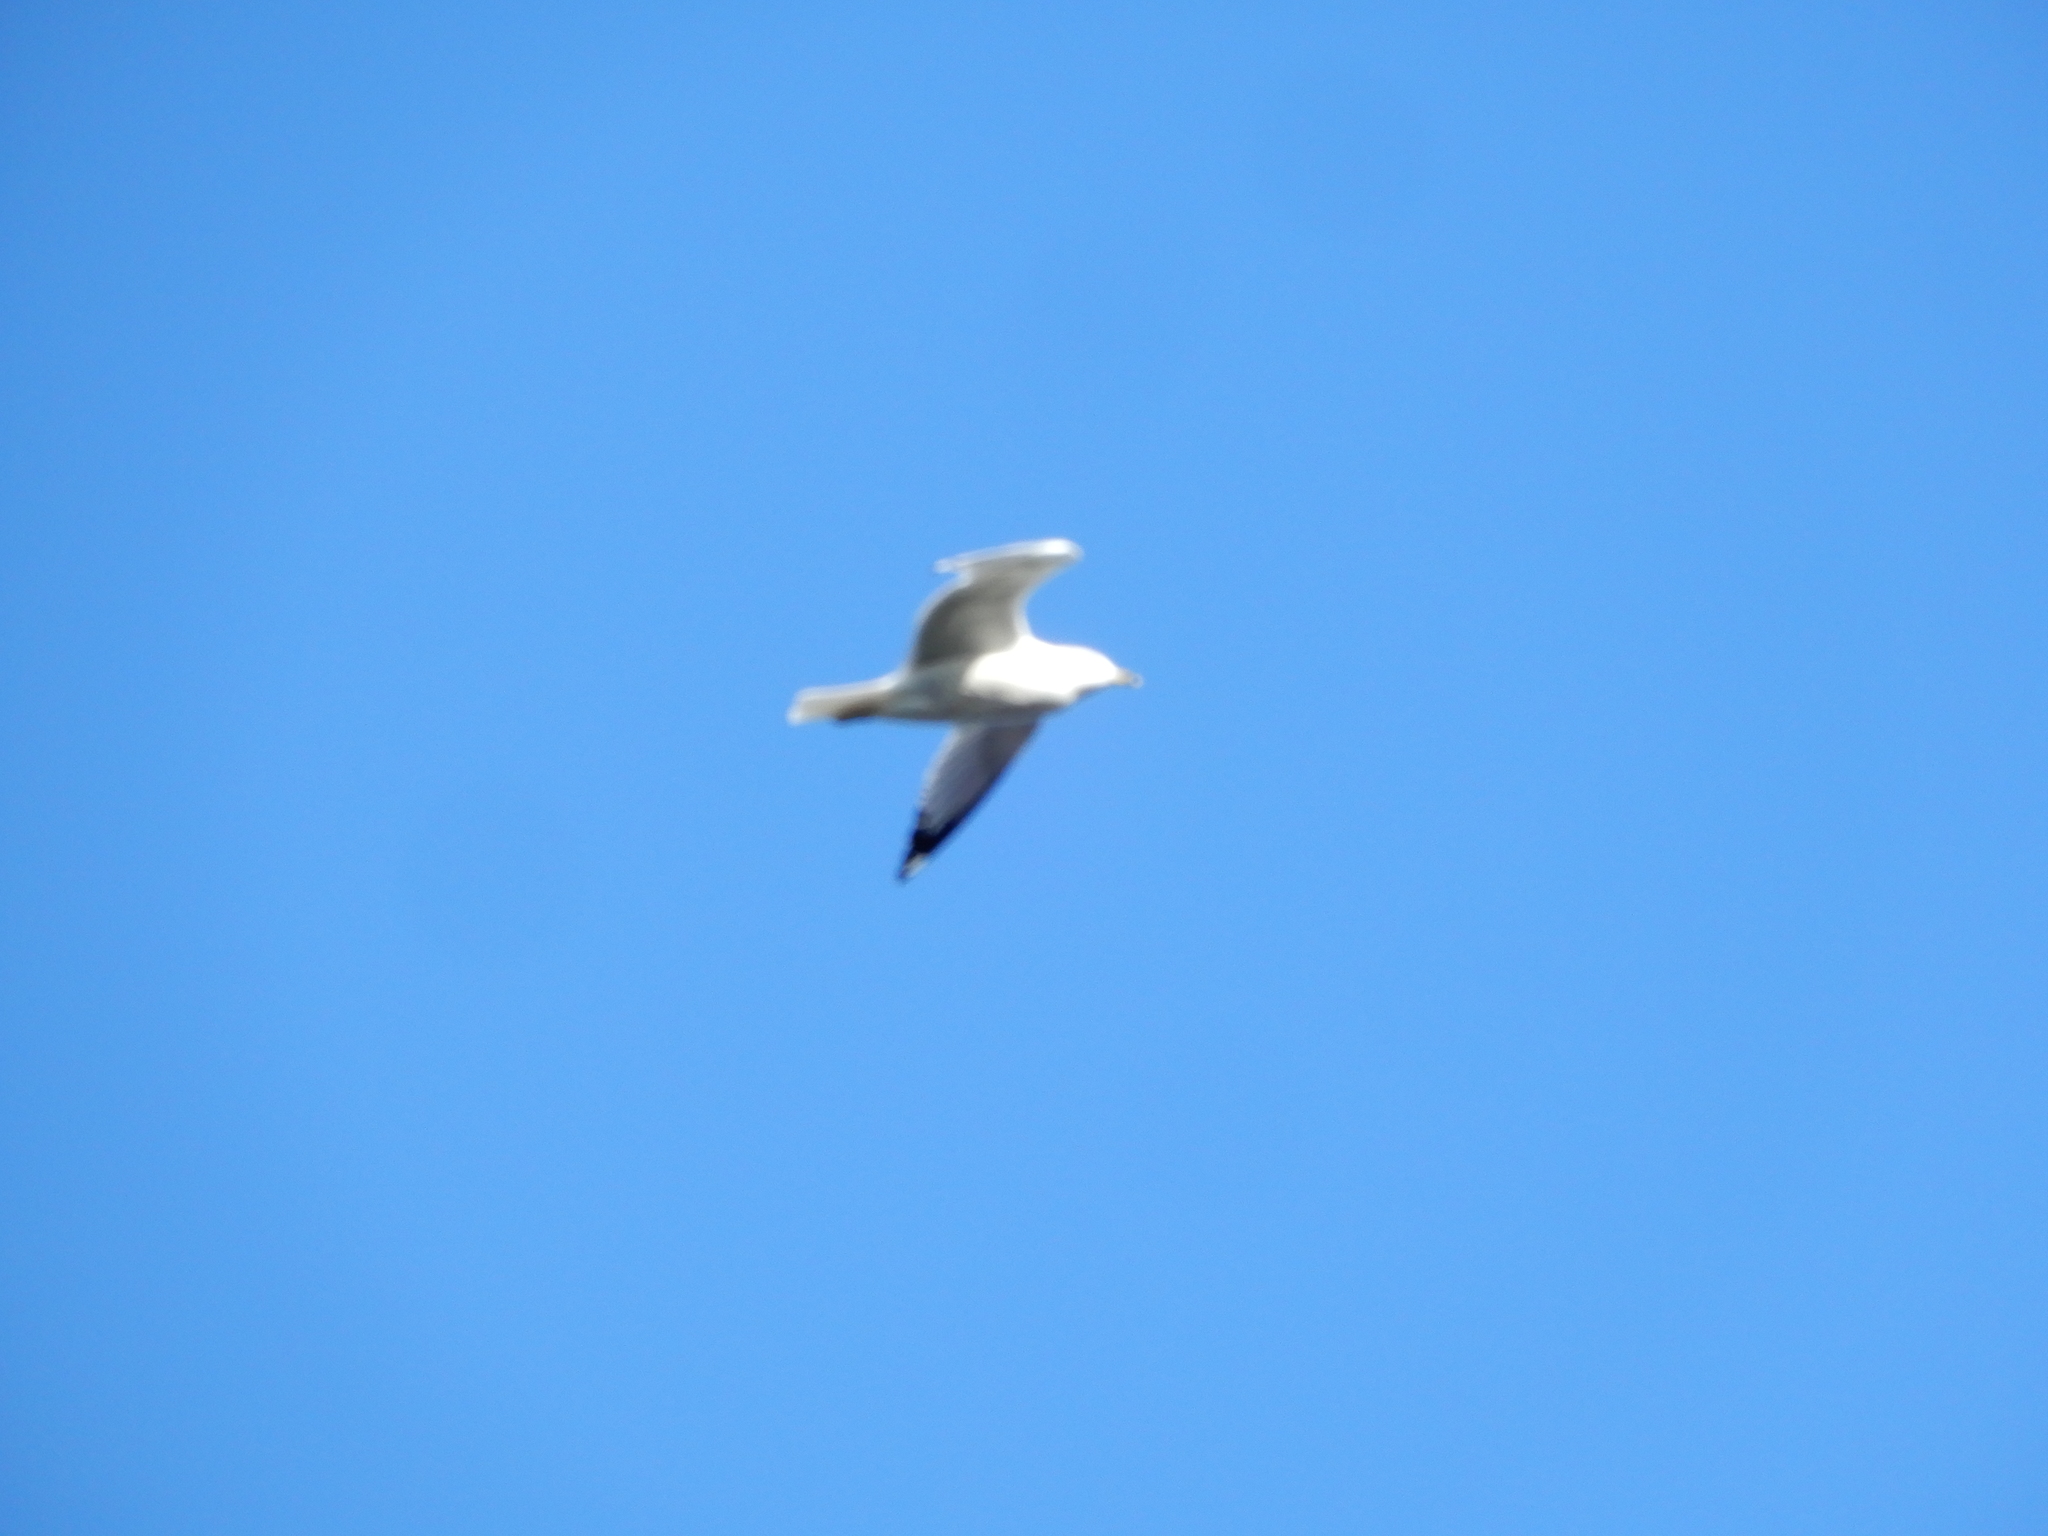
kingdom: Animalia
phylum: Chordata
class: Aves
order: Charadriiformes
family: Laridae
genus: Larus
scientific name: Larus delawarensis
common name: Ring-billed gull
